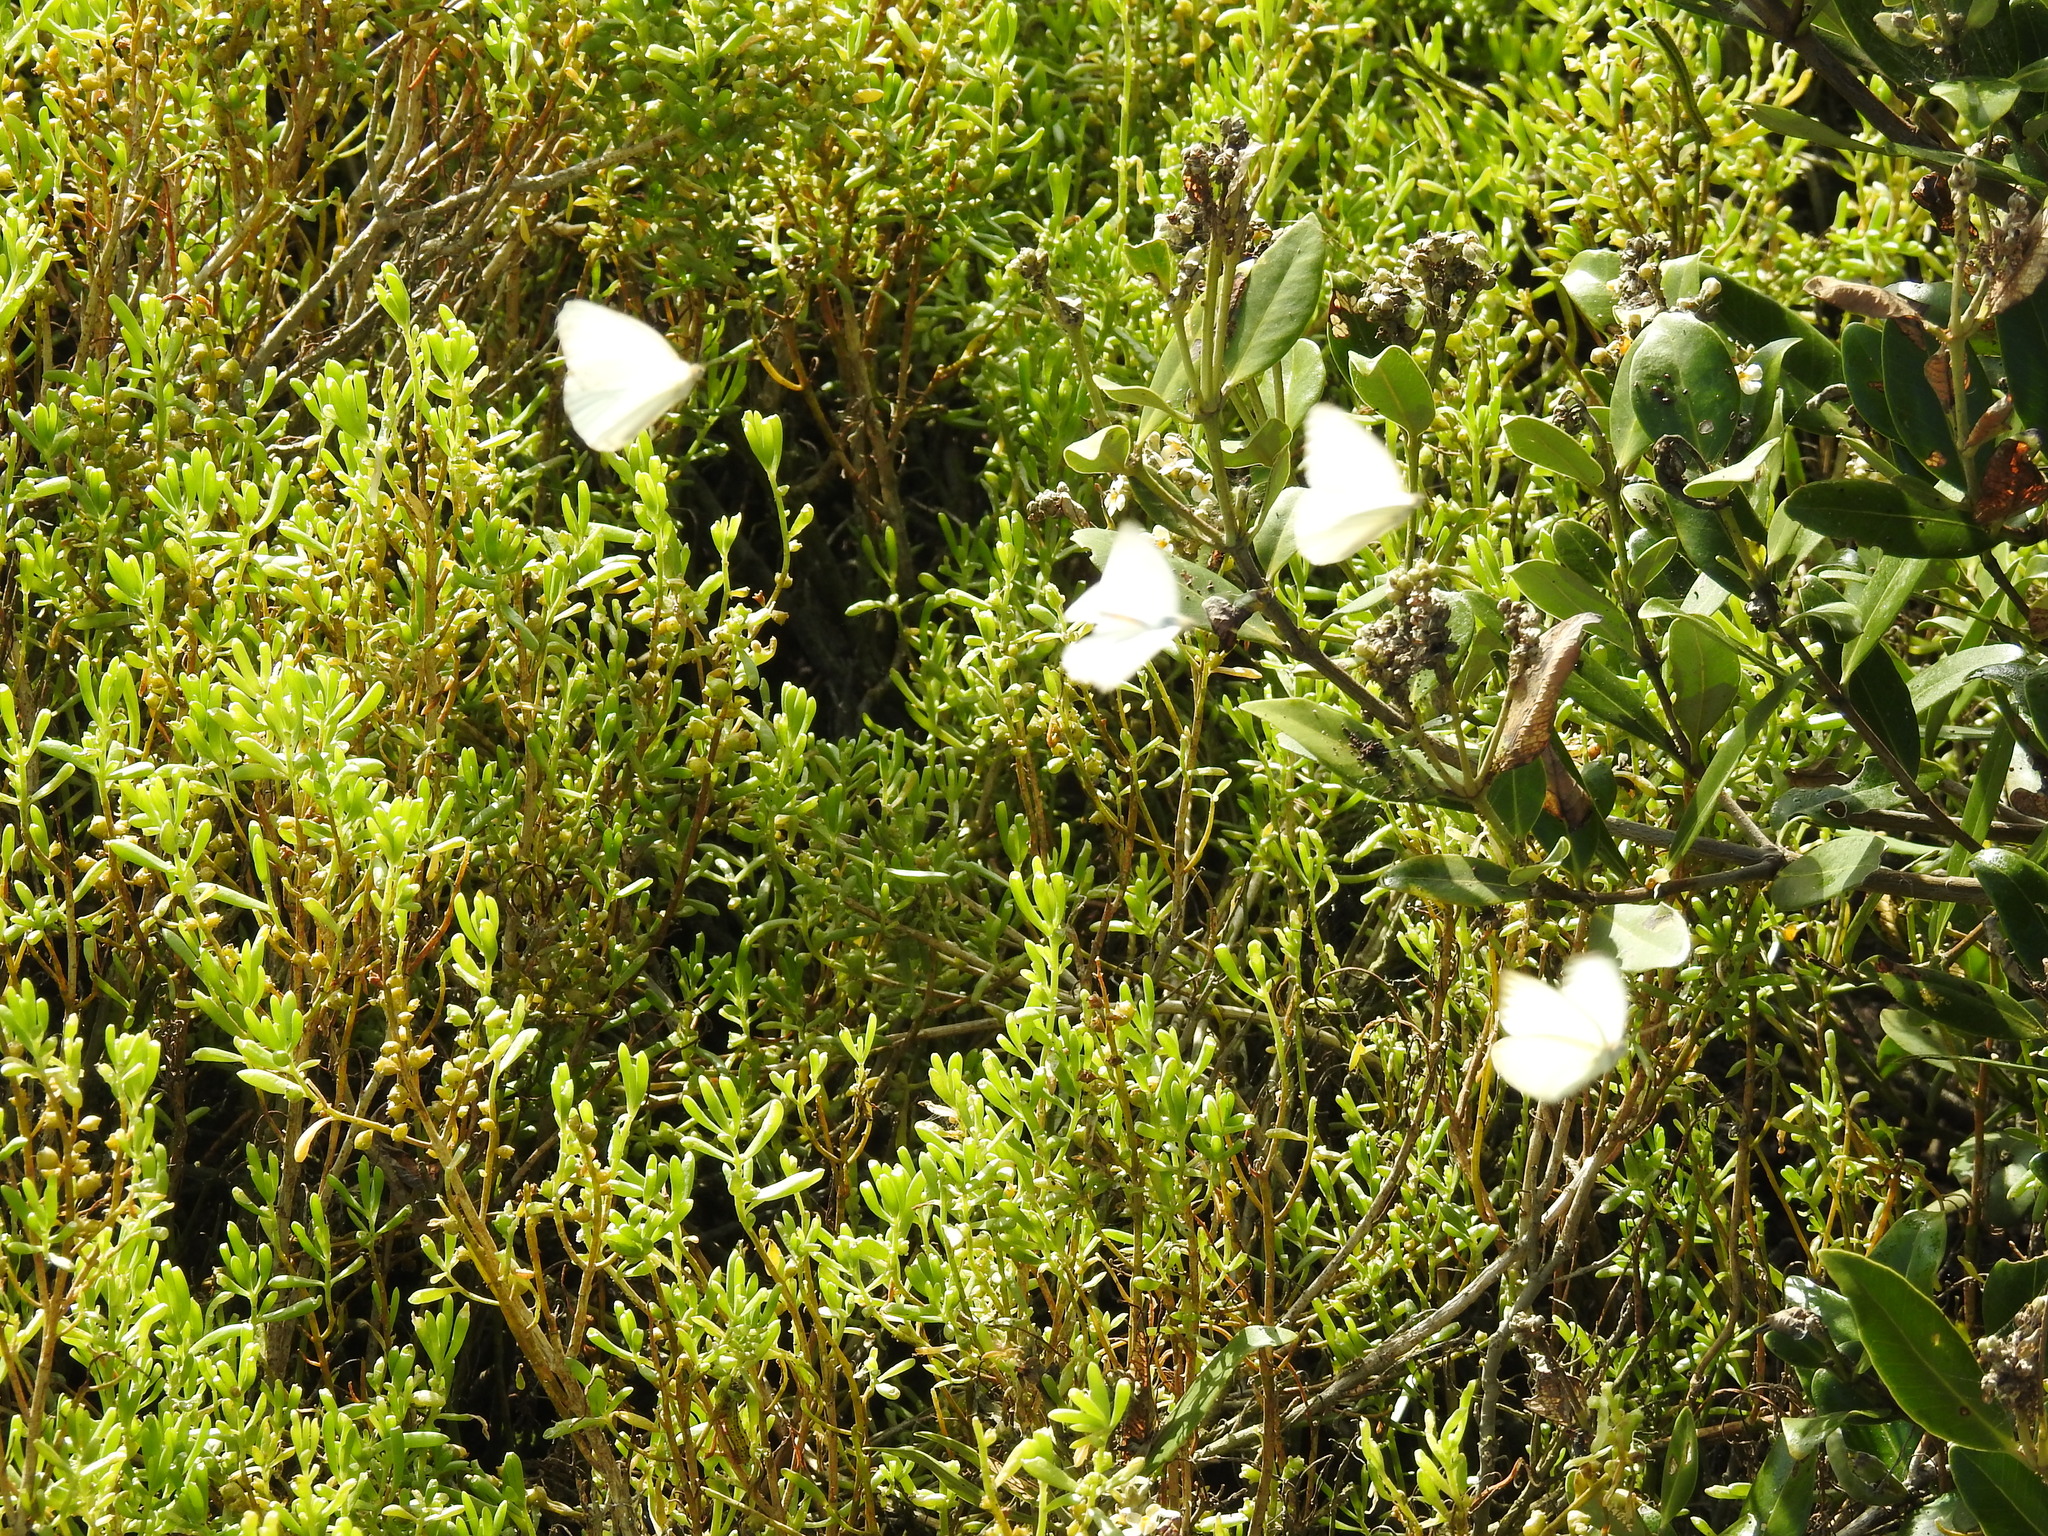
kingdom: Animalia
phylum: Arthropoda
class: Insecta
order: Lepidoptera
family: Pieridae
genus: Ascia
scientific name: Ascia monuste
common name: Great southern white
